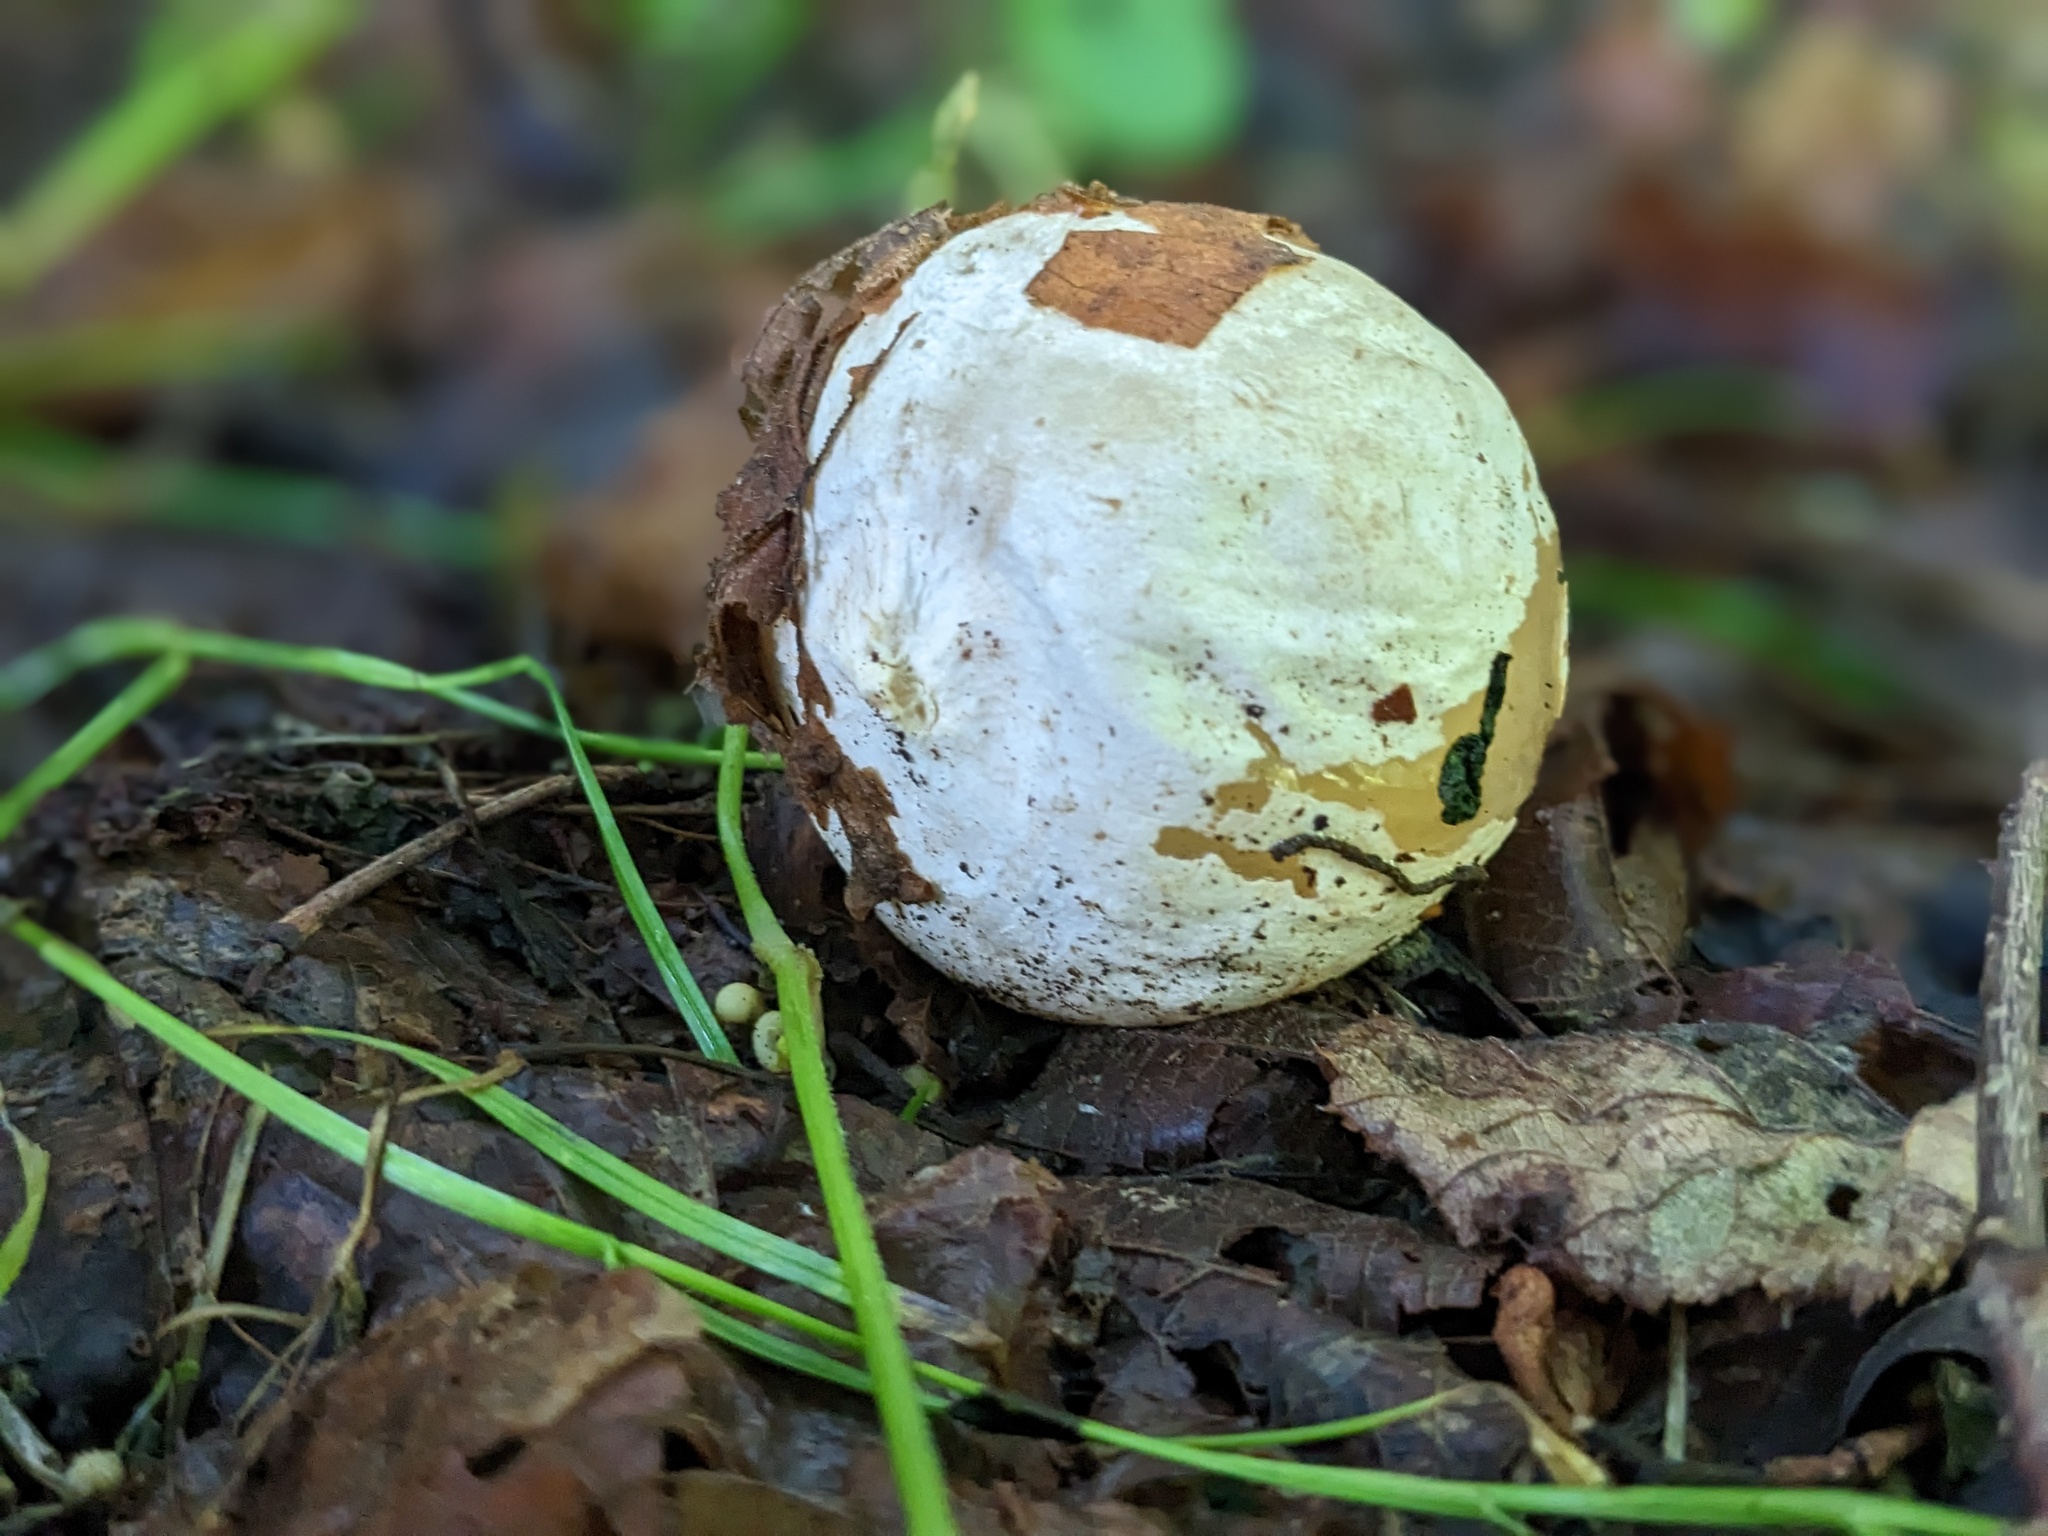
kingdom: Fungi
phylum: Basidiomycota
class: Agaricomycetes
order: Phallales
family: Phallaceae
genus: Phallus
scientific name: Phallus impudicus
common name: Common stinkhorn
